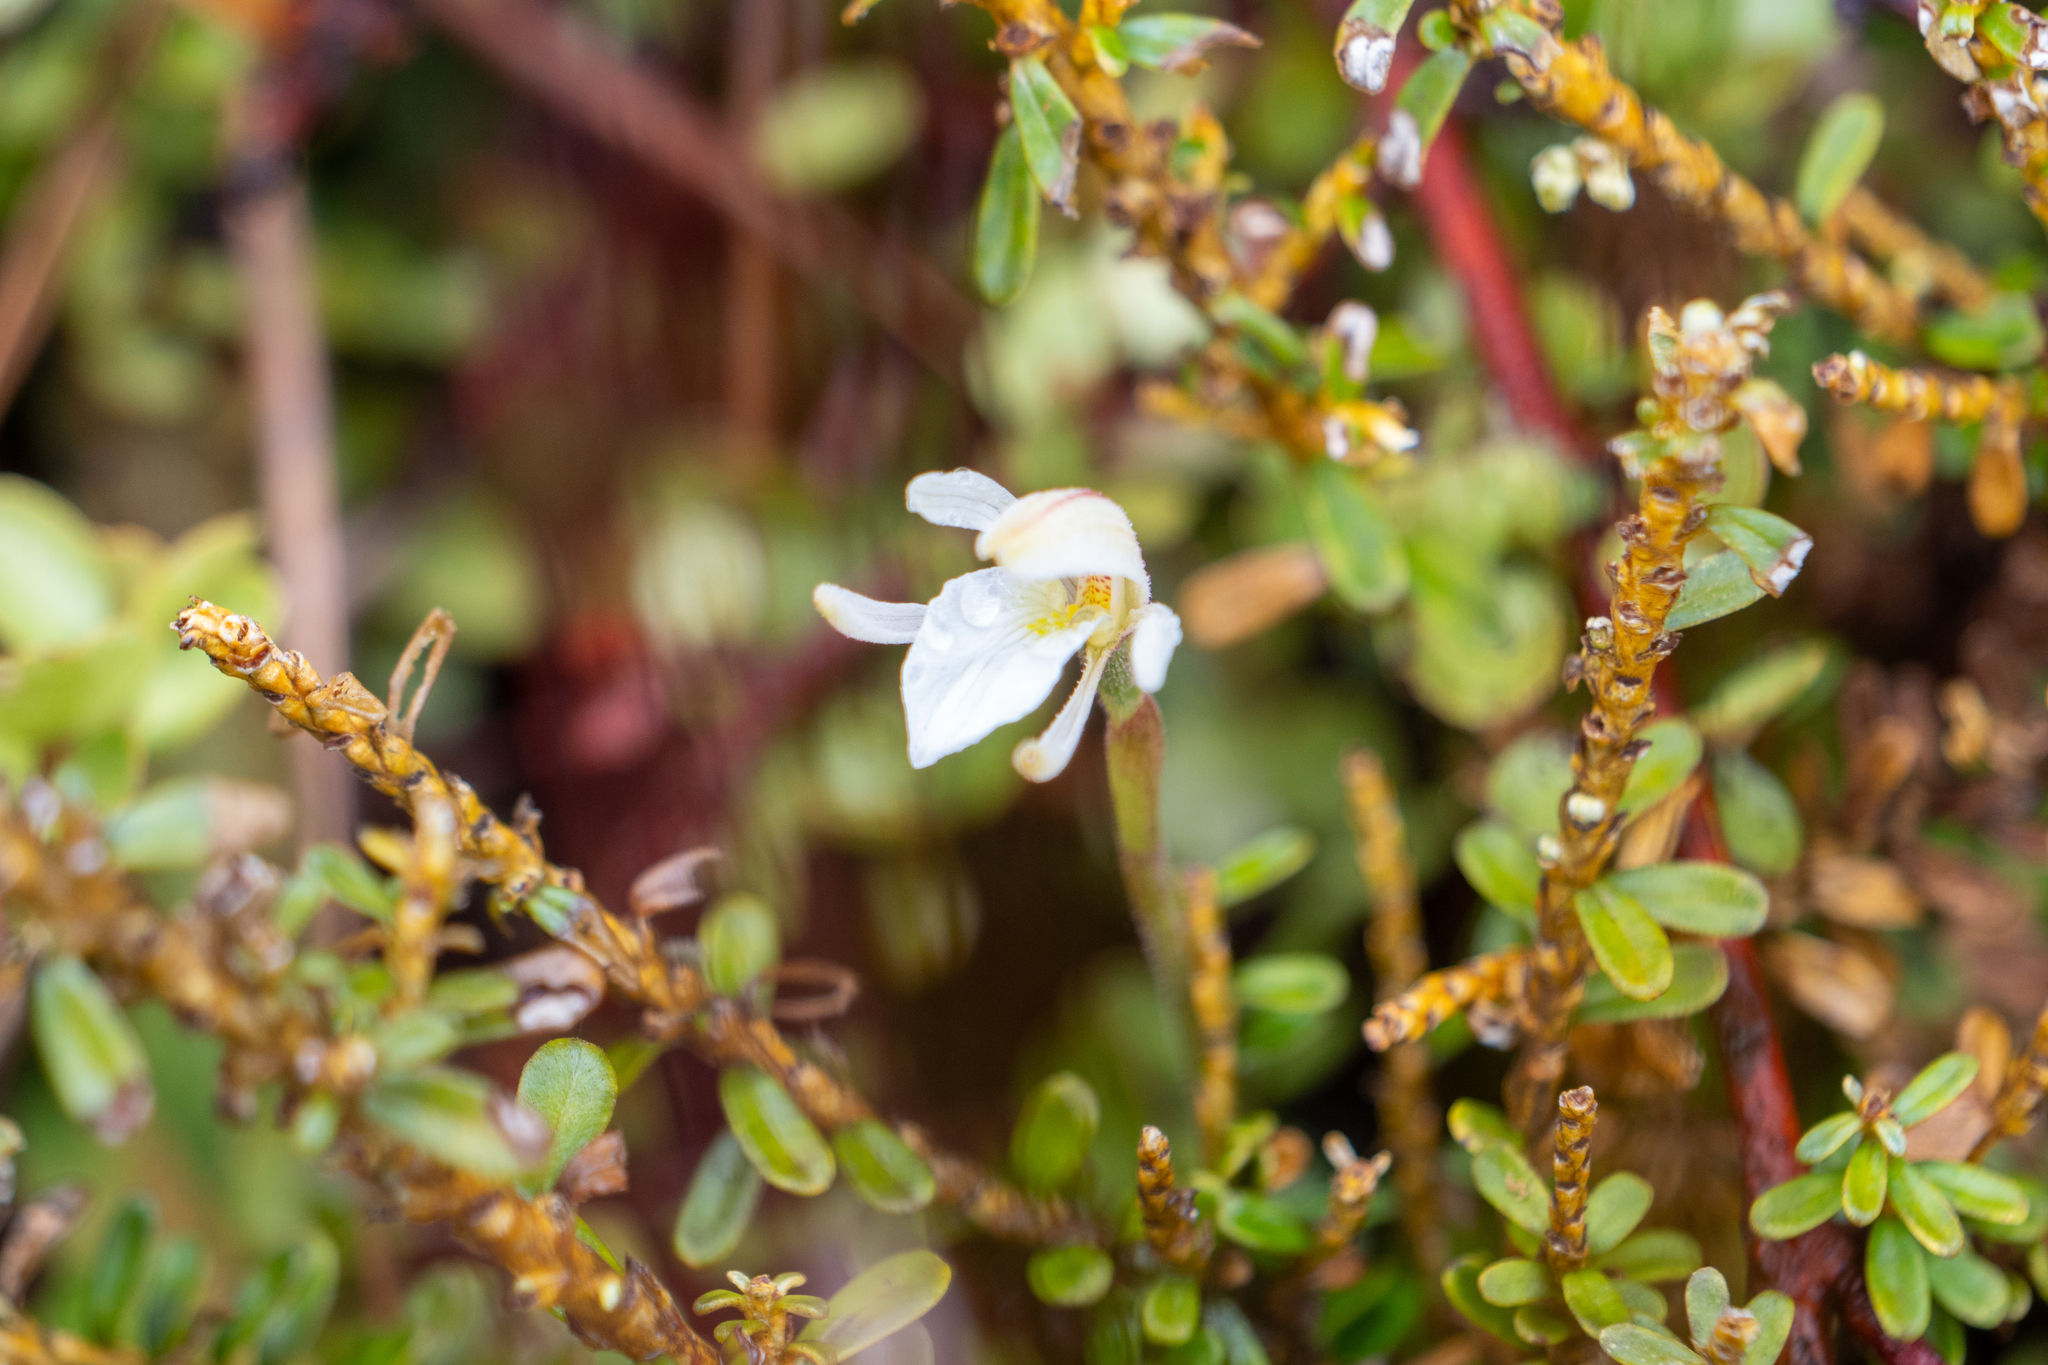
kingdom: Plantae
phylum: Tracheophyta
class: Liliopsida
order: Asparagales
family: Orchidaceae
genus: Aporostylis
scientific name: Aporostylis bifolia
